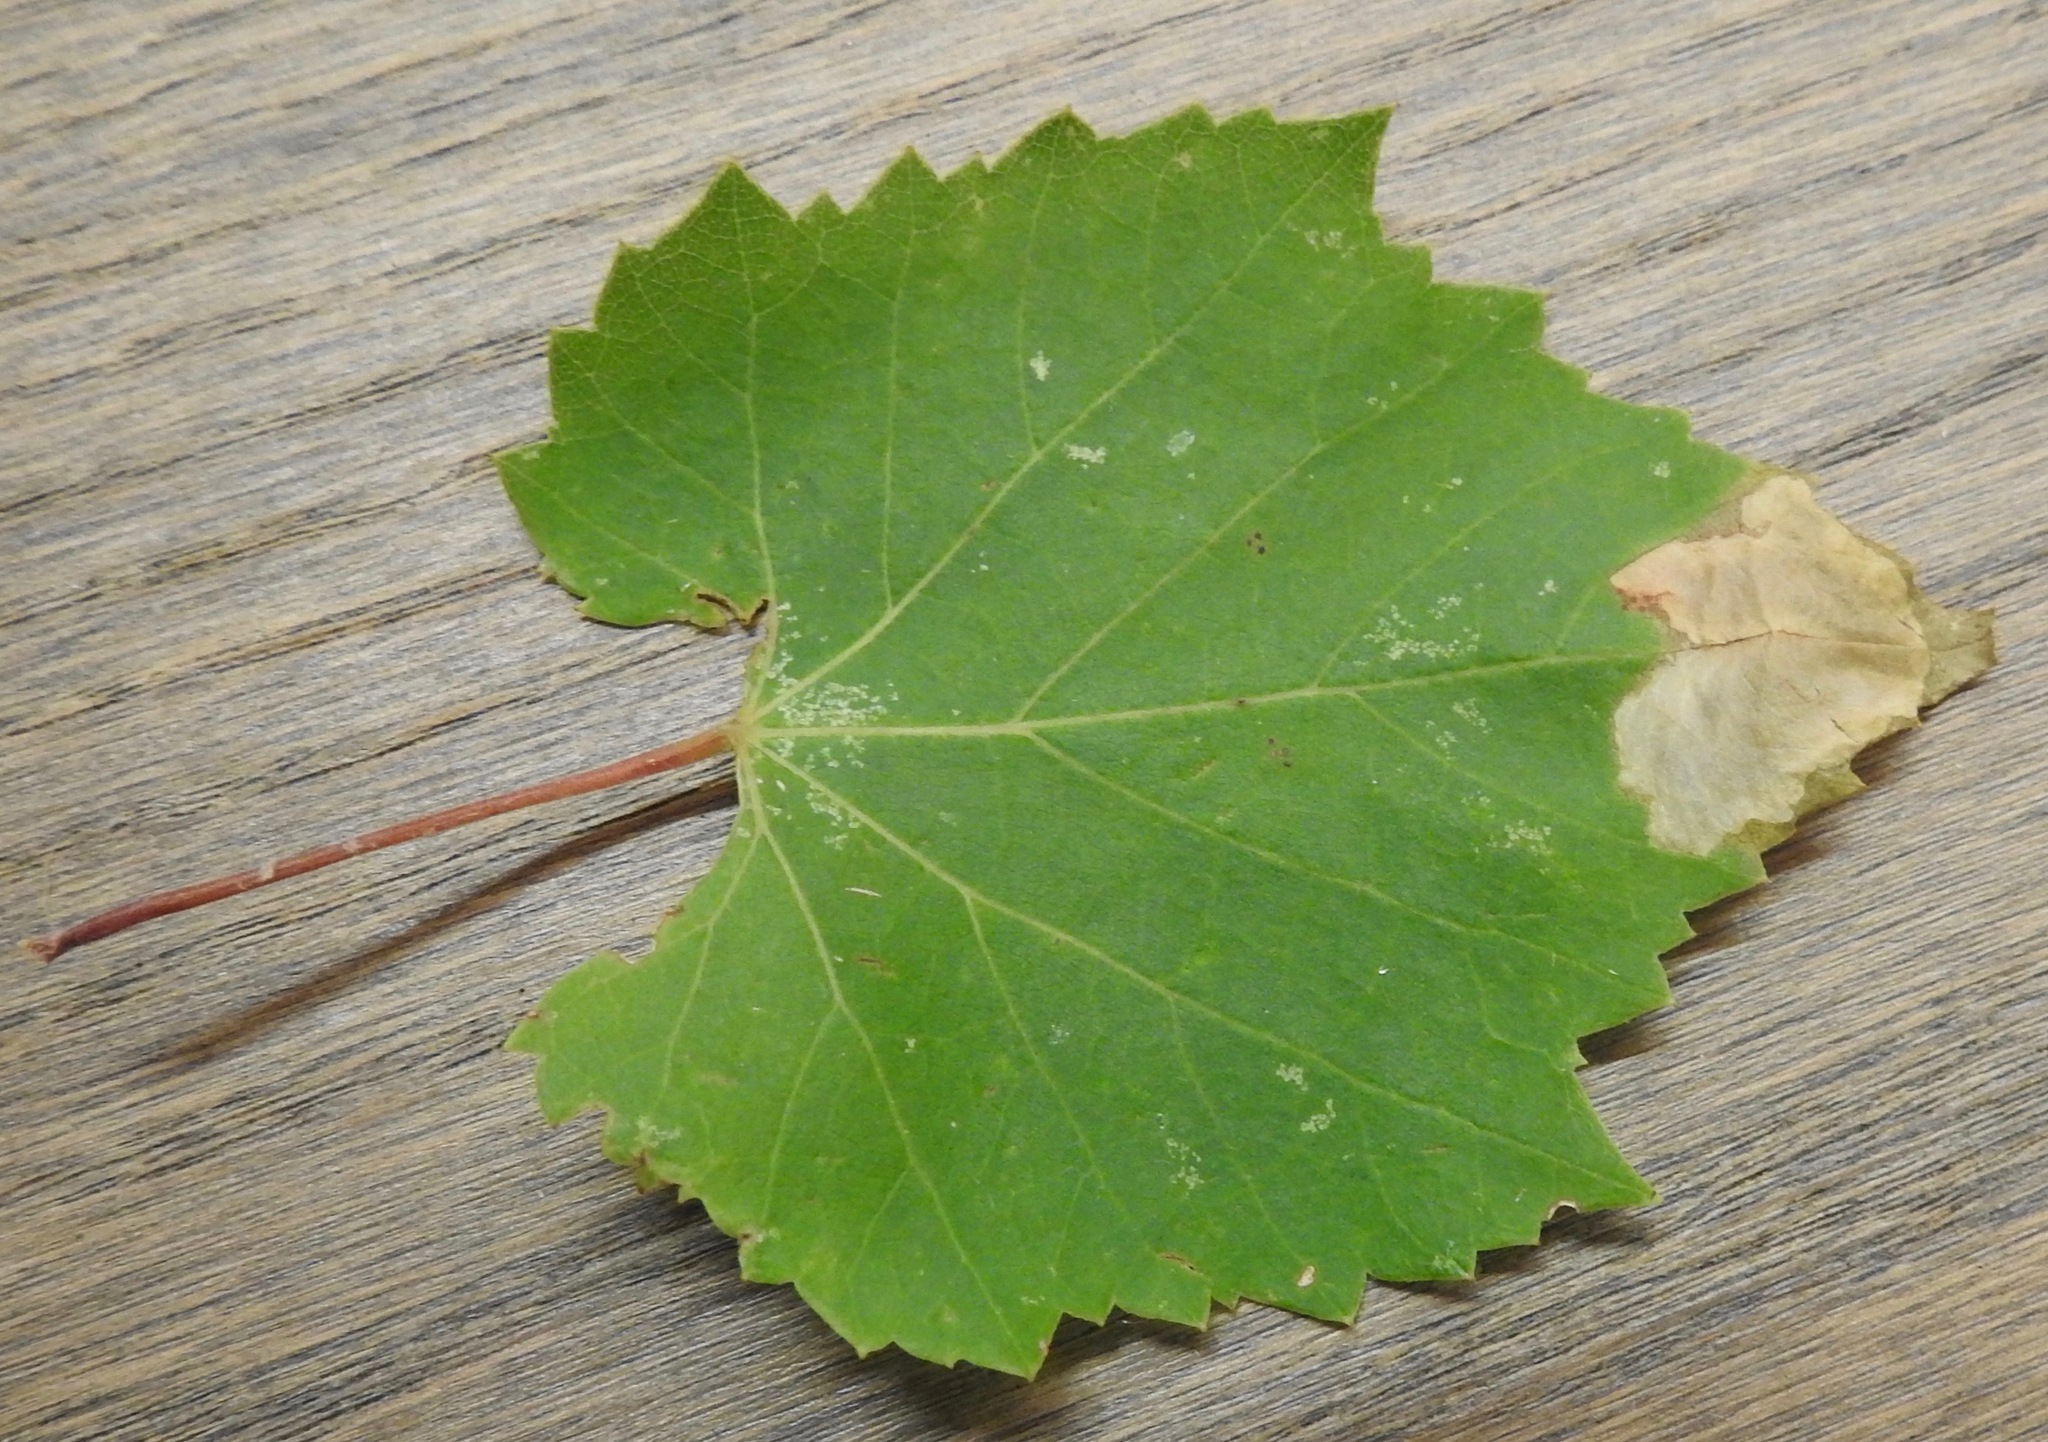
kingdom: Animalia
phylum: Arthropoda
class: Insecta
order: Lepidoptera
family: Heliozelidae
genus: Antispila
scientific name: Antispila voraginella
